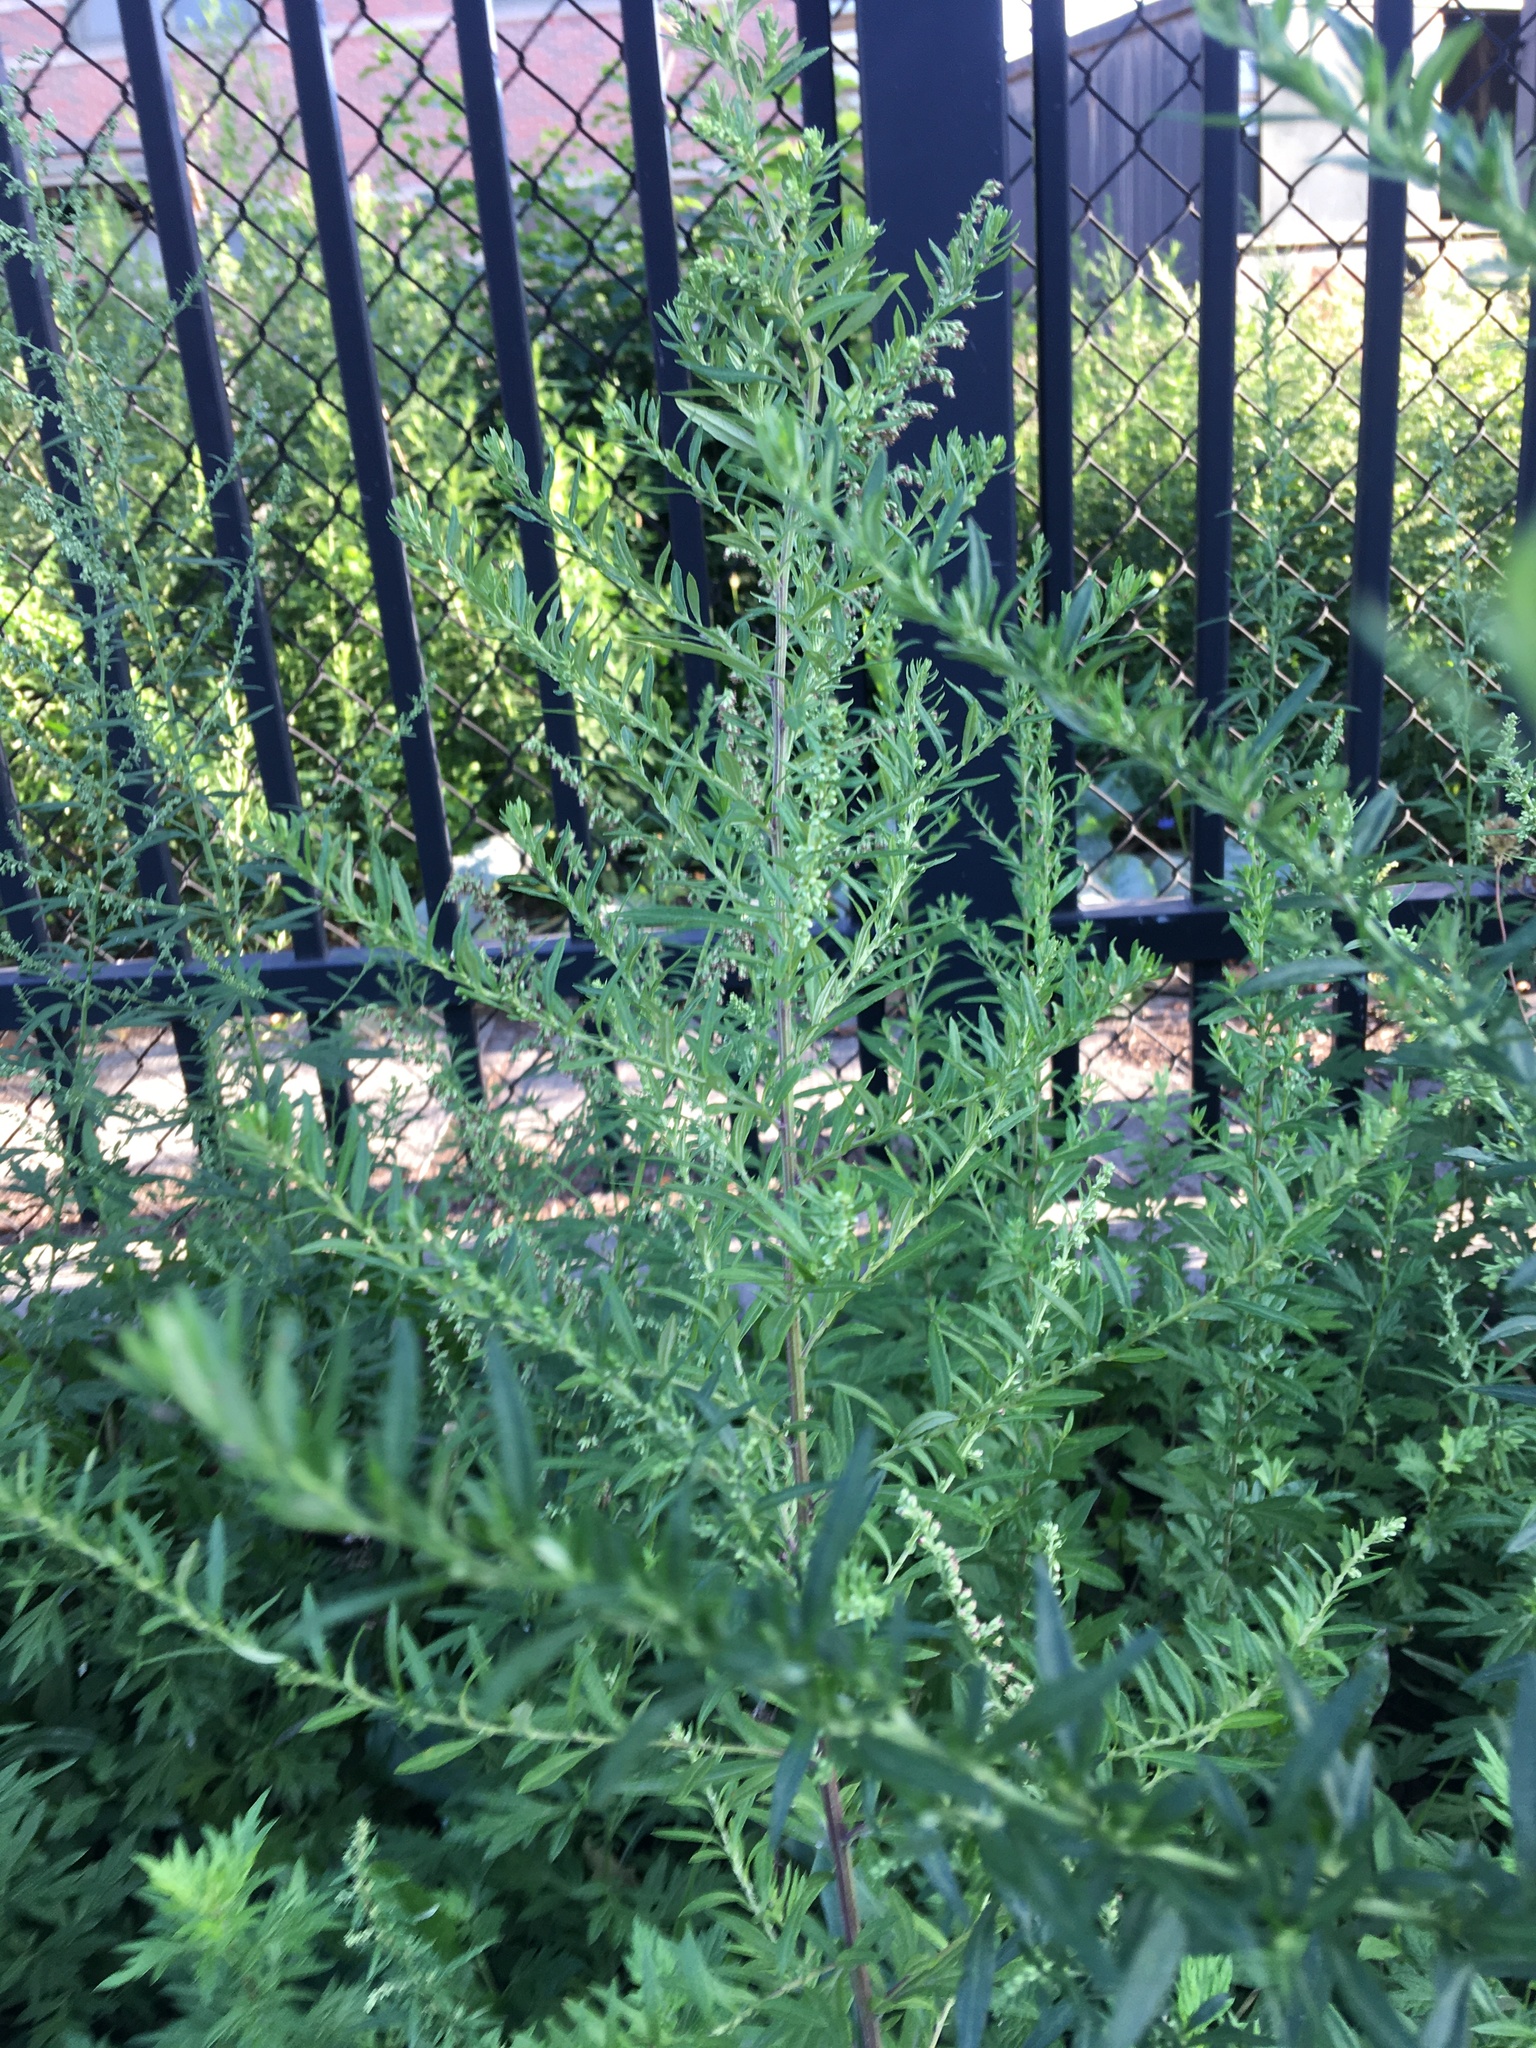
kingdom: Plantae
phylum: Tracheophyta
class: Magnoliopsida
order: Asterales
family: Asteraceae
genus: Artemisia
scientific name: Artemisia vulgaris
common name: Mugwort
